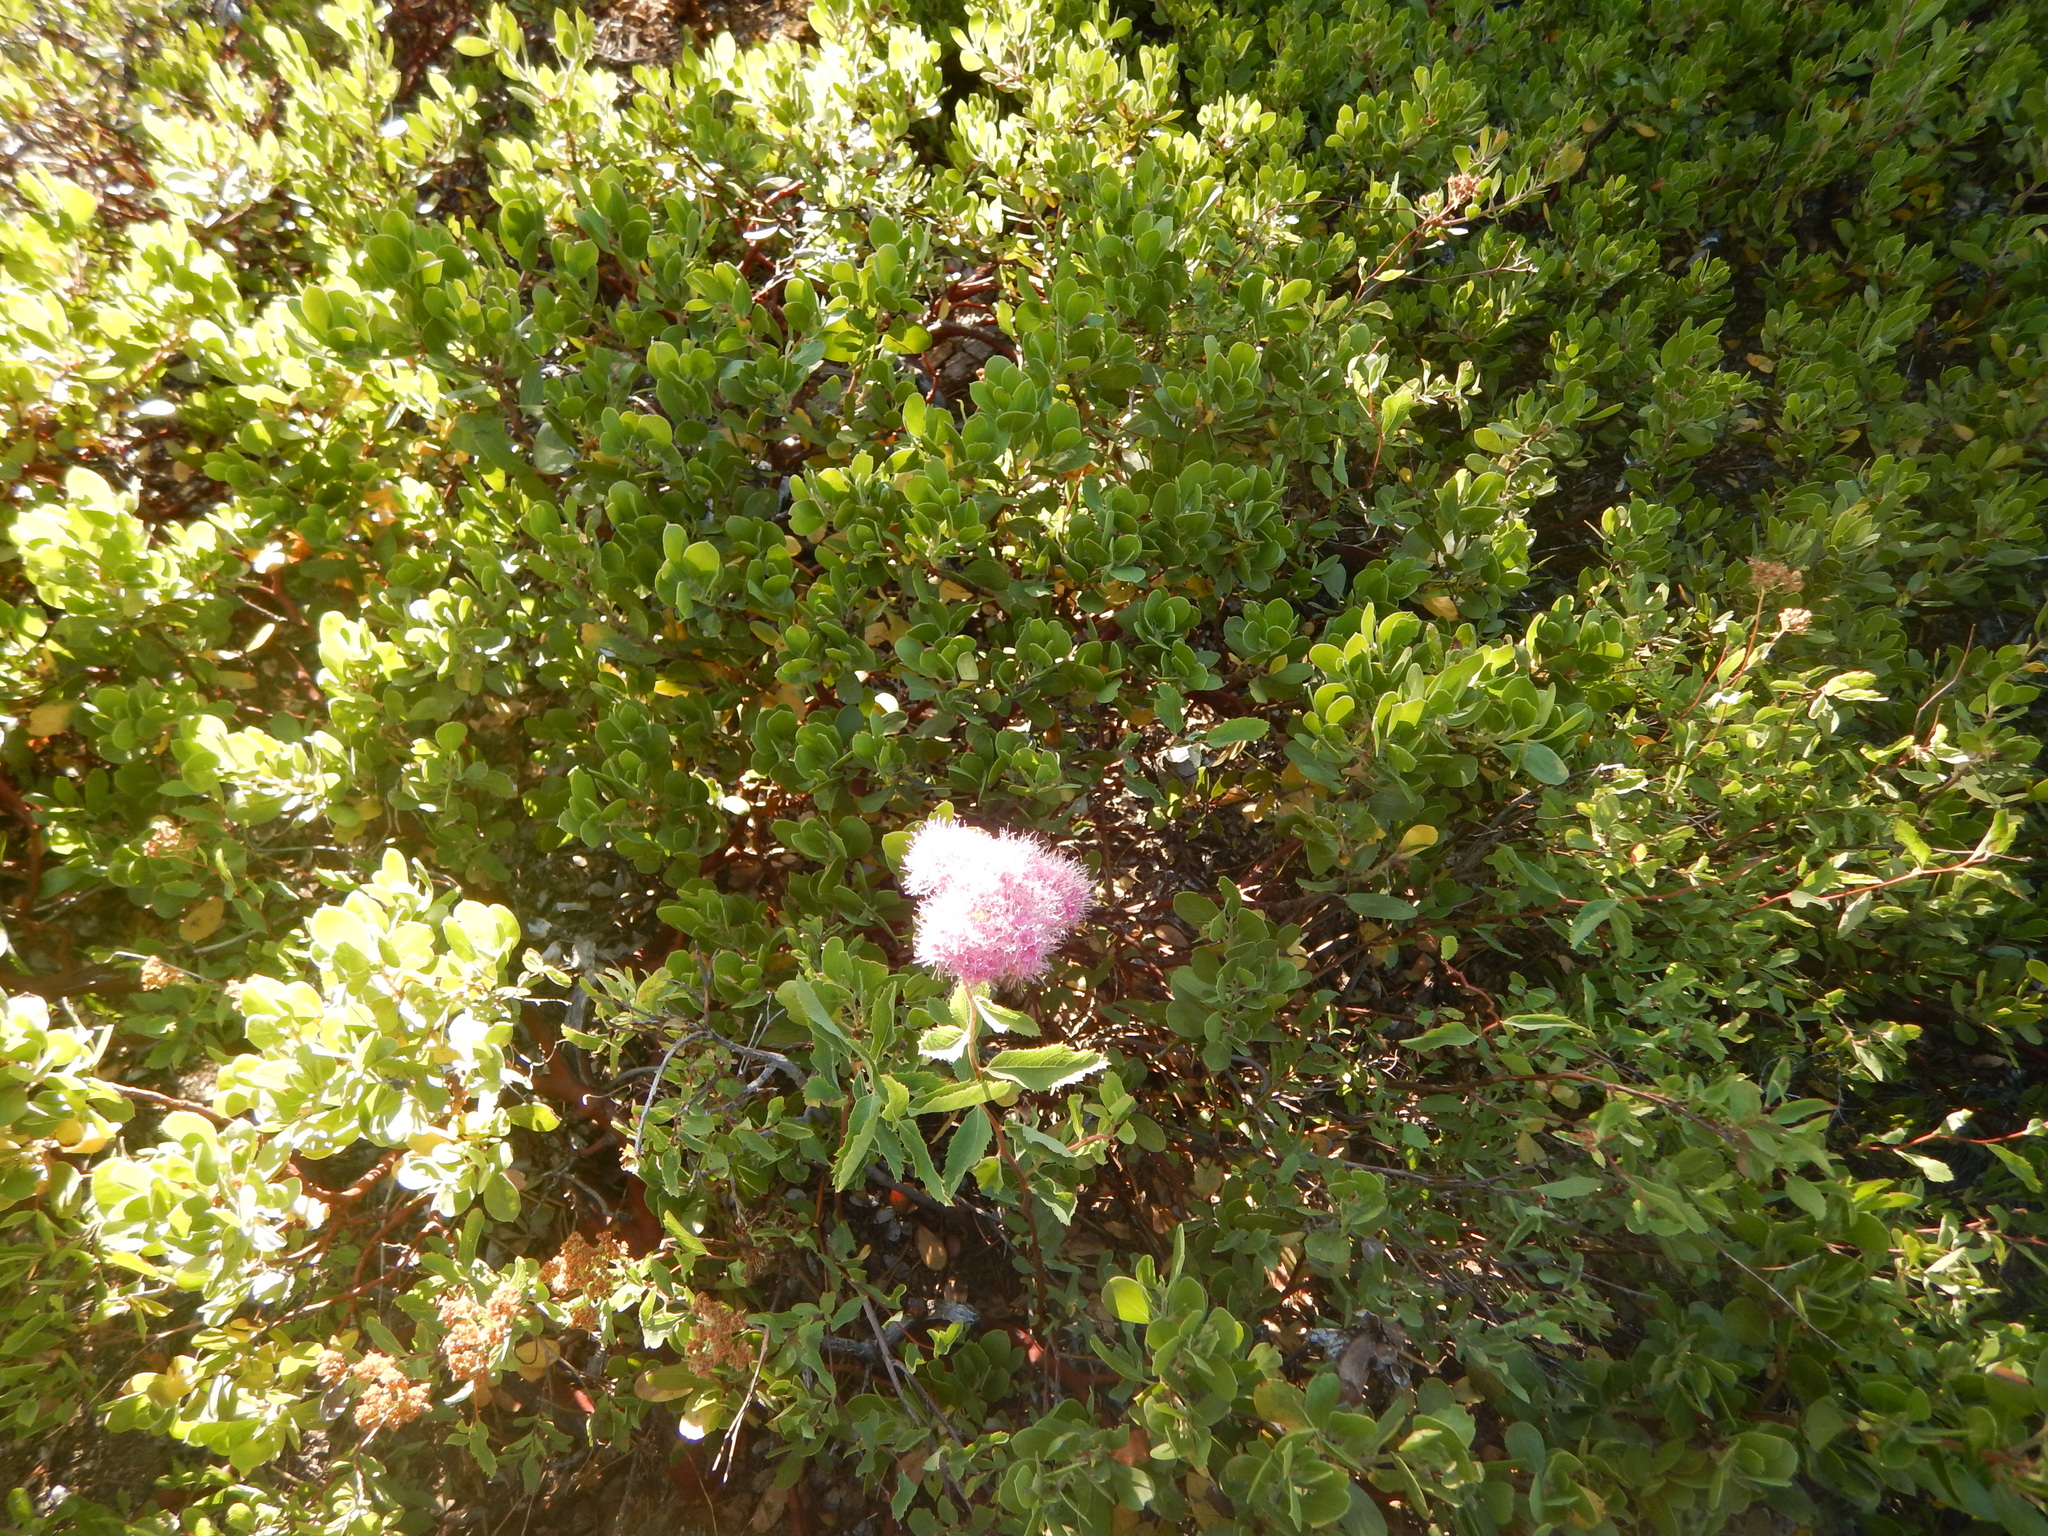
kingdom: Plantae
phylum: Tracheophyta
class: Magnoliopsida
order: Rosales
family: Rosaceae
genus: Spiraea
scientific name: Spiraea splendens
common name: Subalpine meadowsweet
